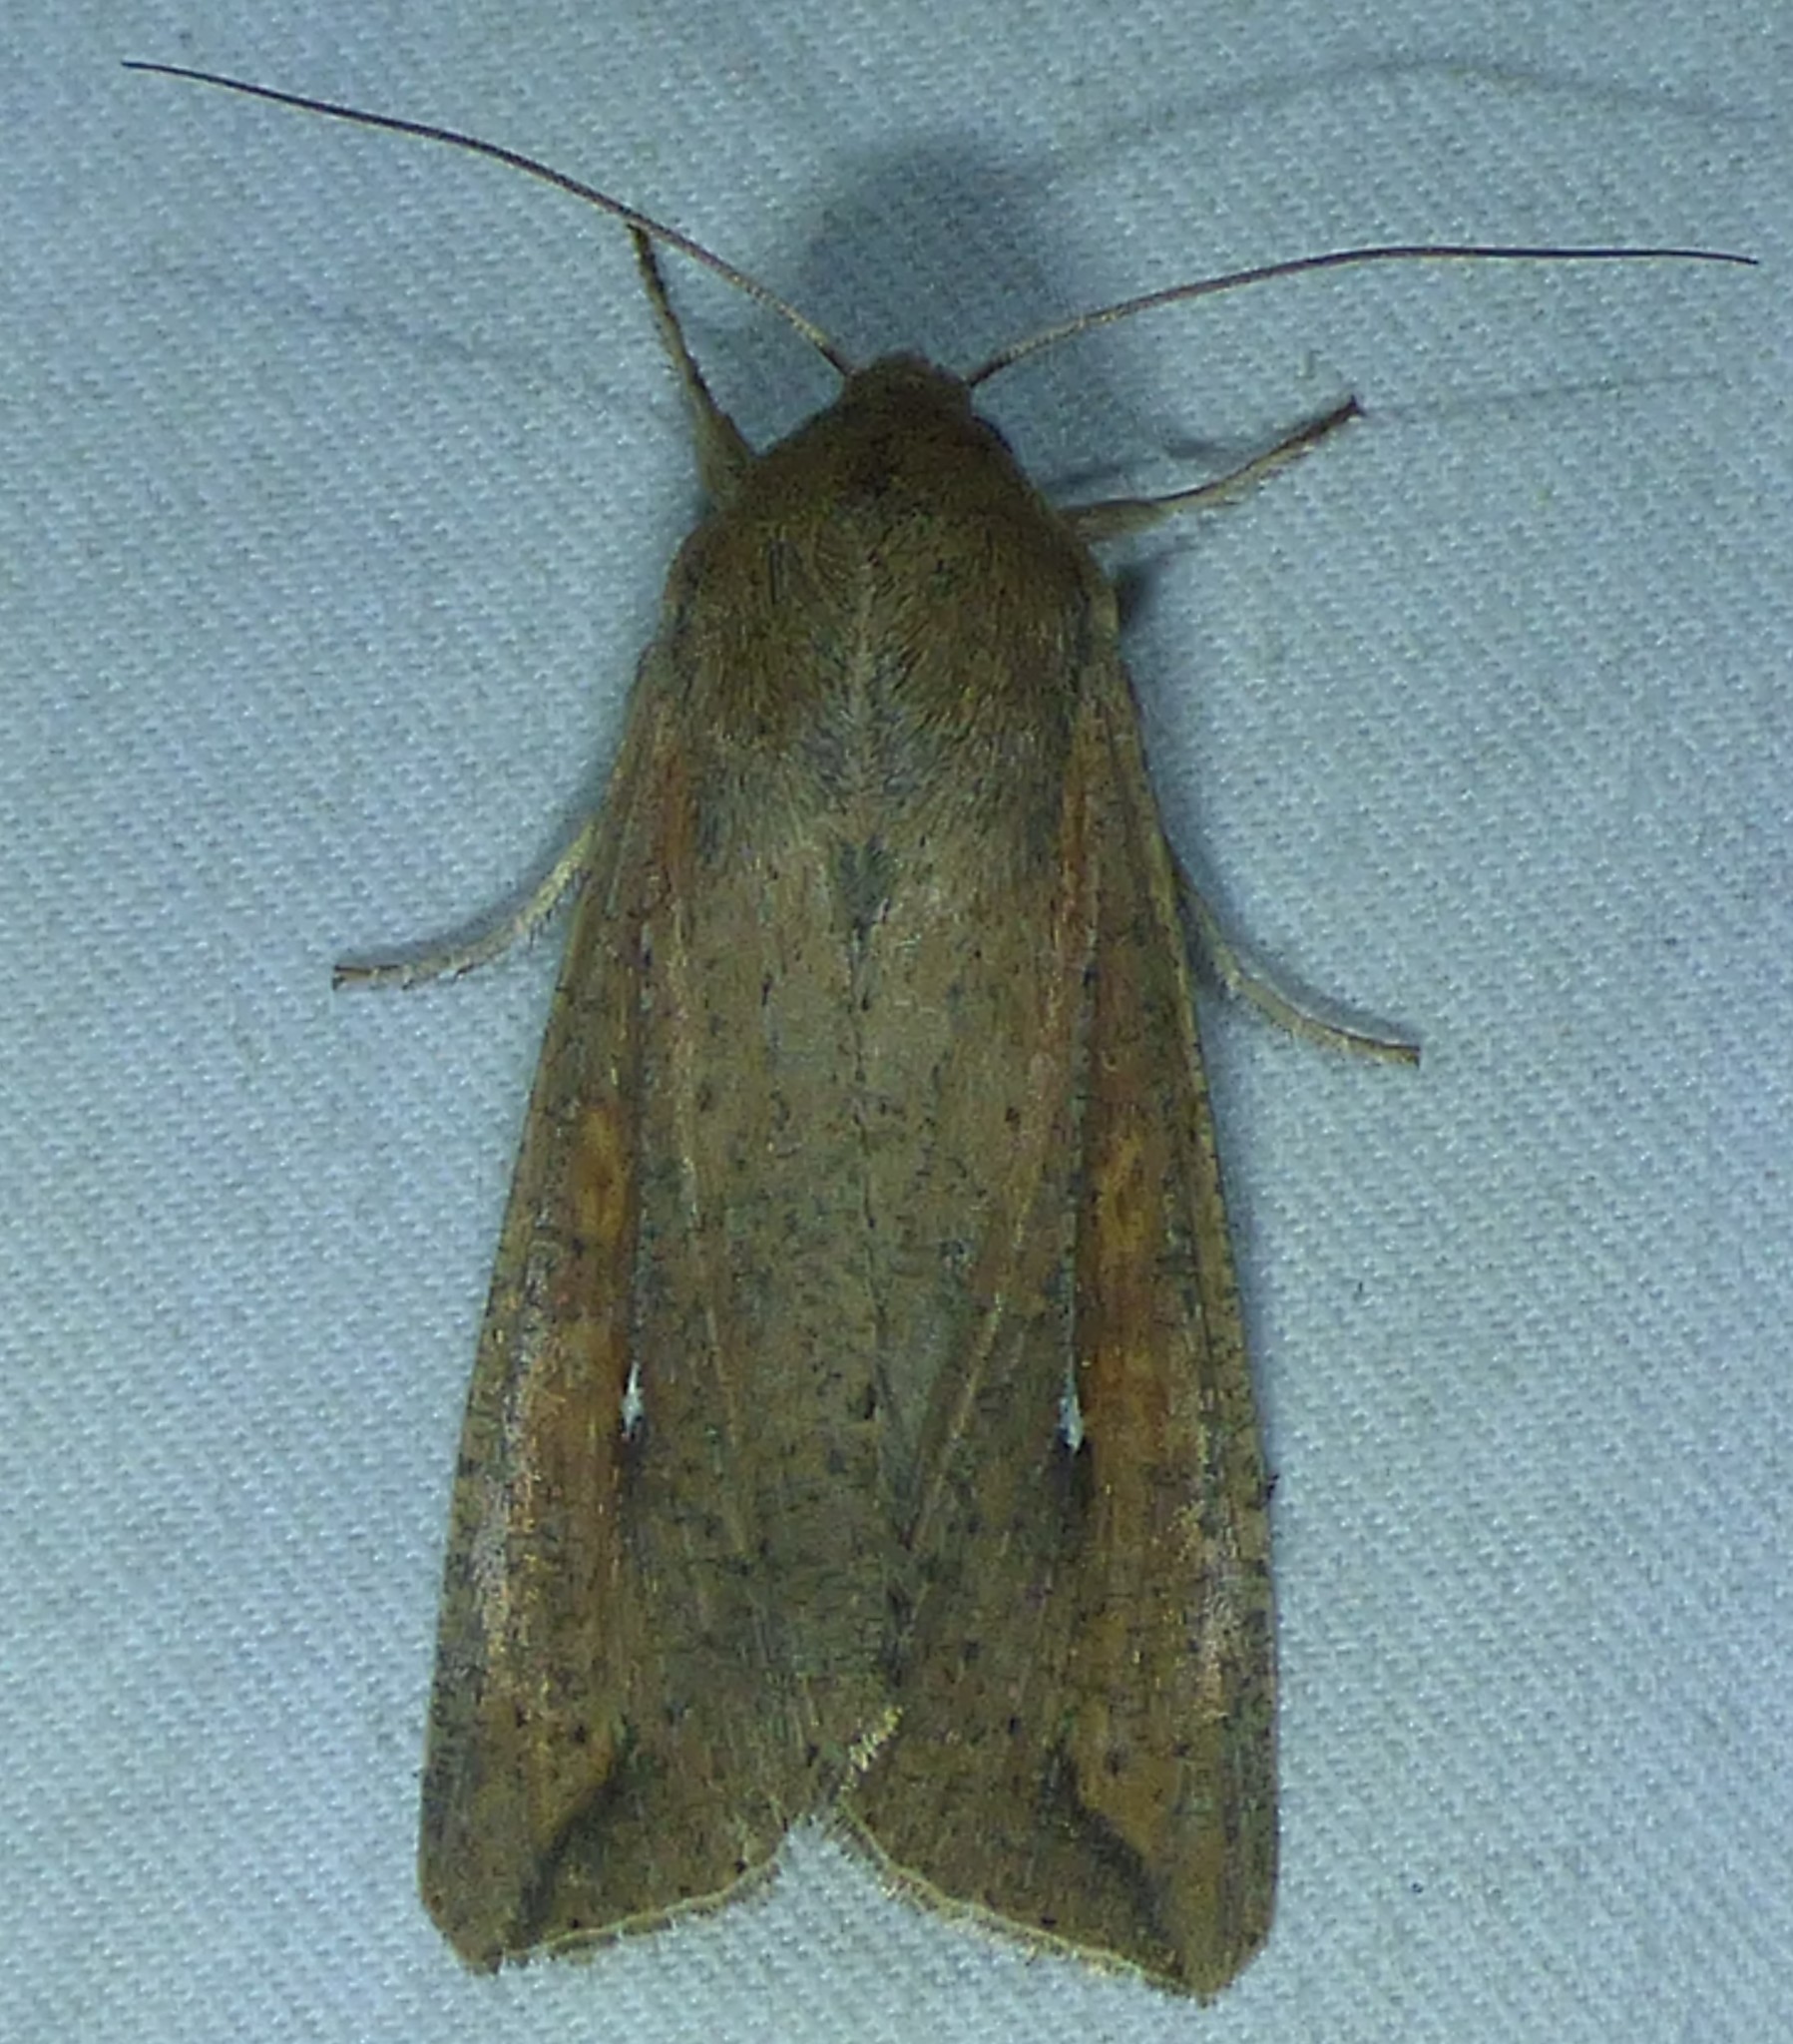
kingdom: Animalia
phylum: Arthropoda
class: Insecta
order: Lepidoptera
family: Noctuidae
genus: Mythimna
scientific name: Mythimna unipuncta
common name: White-speck
